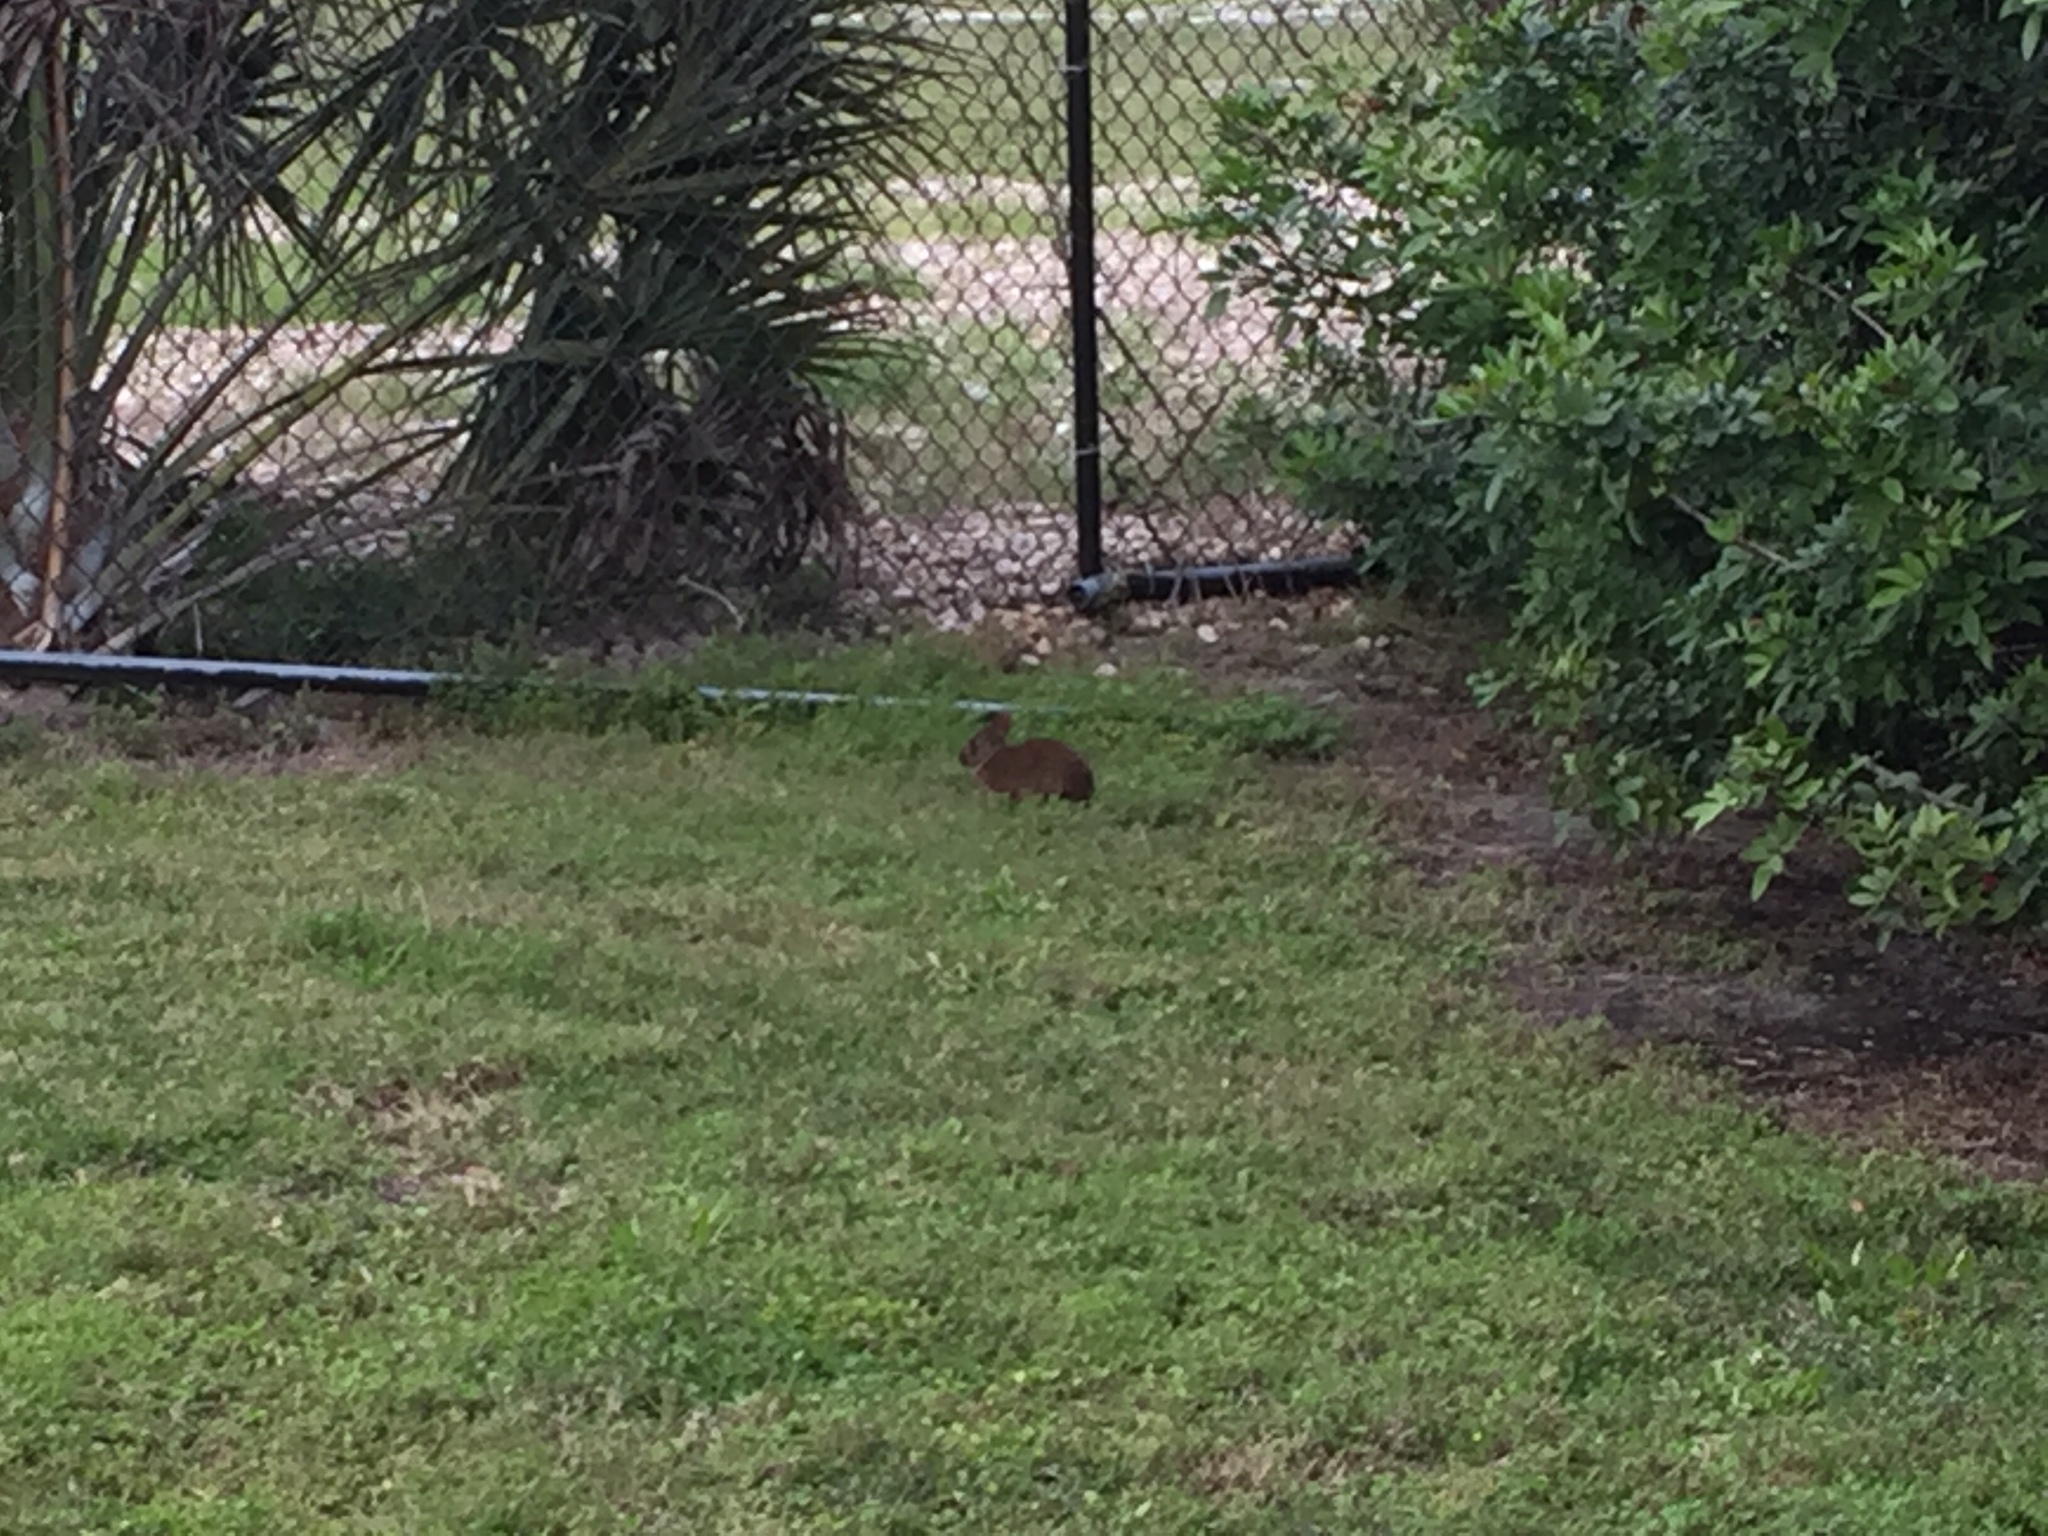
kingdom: Animalia
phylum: Chordata
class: Mammalia
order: Lagomorpha
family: Leporidae
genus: Sylvilagus
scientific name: Sylvilagus palustris
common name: Marsh rabbit
